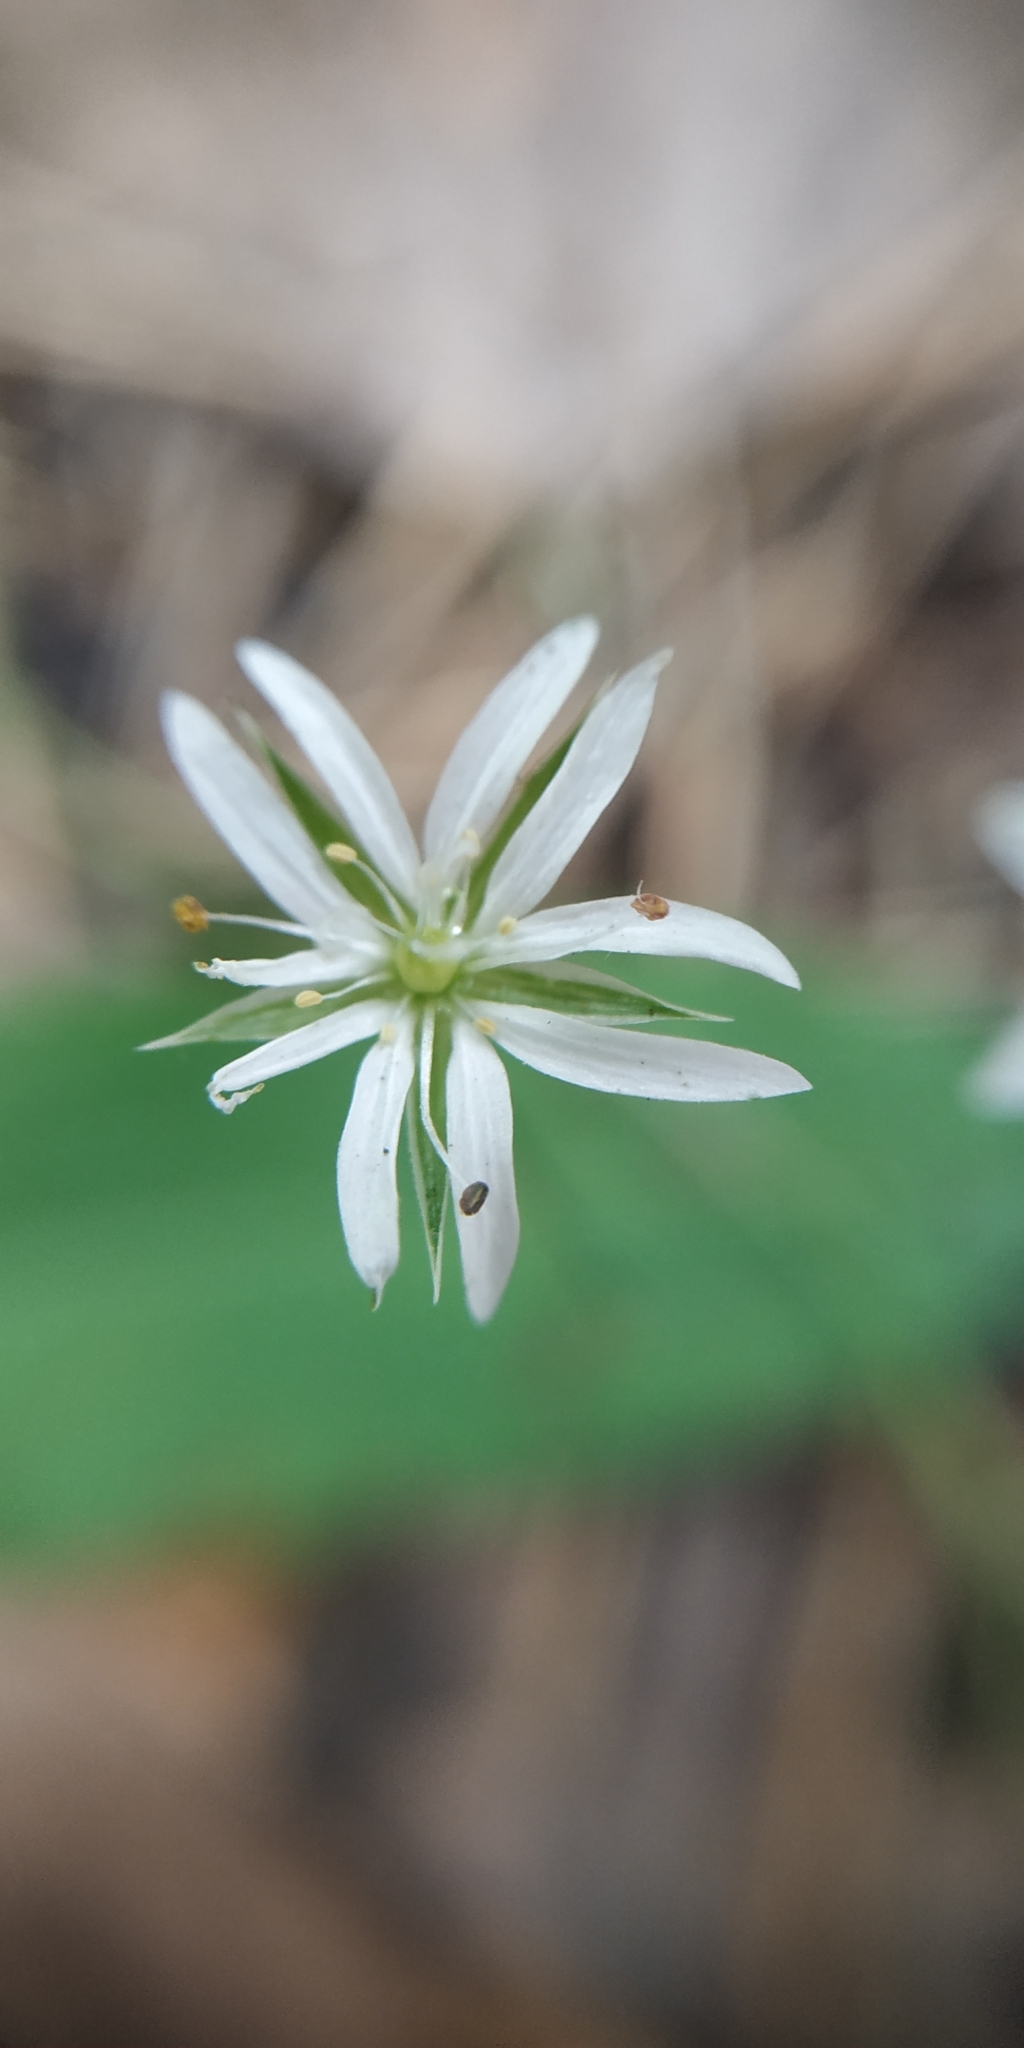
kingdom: Plantae
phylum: Tracheophyta
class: Magnoliopsida
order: Caryophyllales
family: Caryophyllaceae
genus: Stellaria
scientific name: Stellaria graminea
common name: Grass-like starwort
